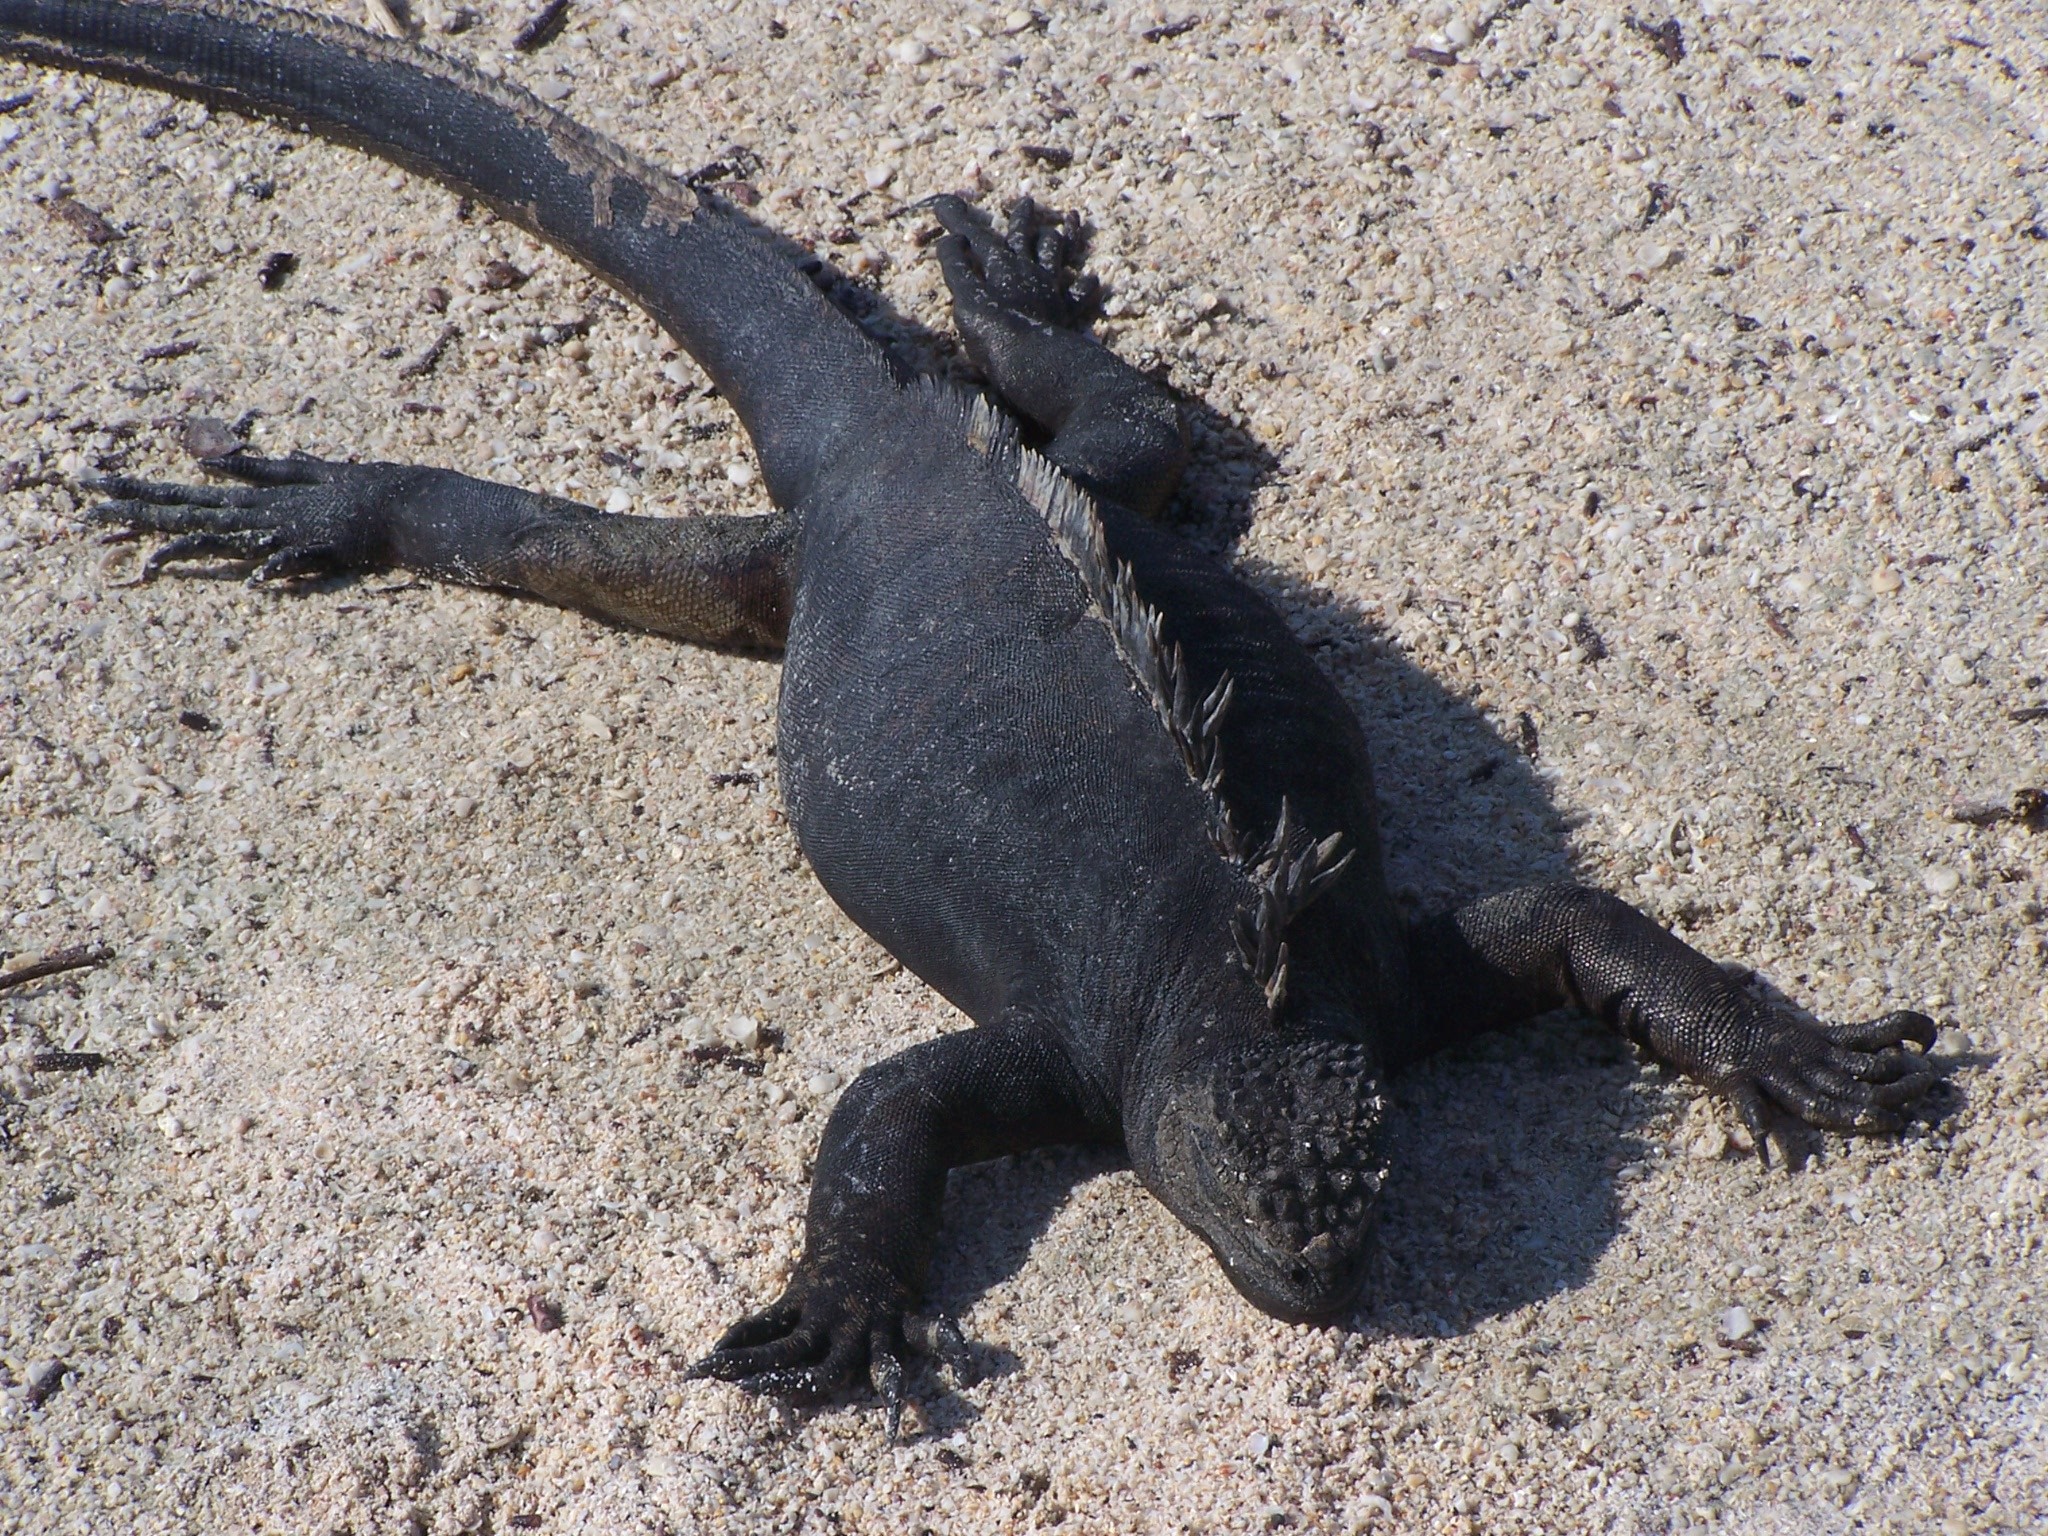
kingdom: Animalia
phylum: Chordata
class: Squamata
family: Iguanidae
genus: Amblyrhynchus
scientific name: Amblyrhynchus cristatus
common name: Marine iguana
